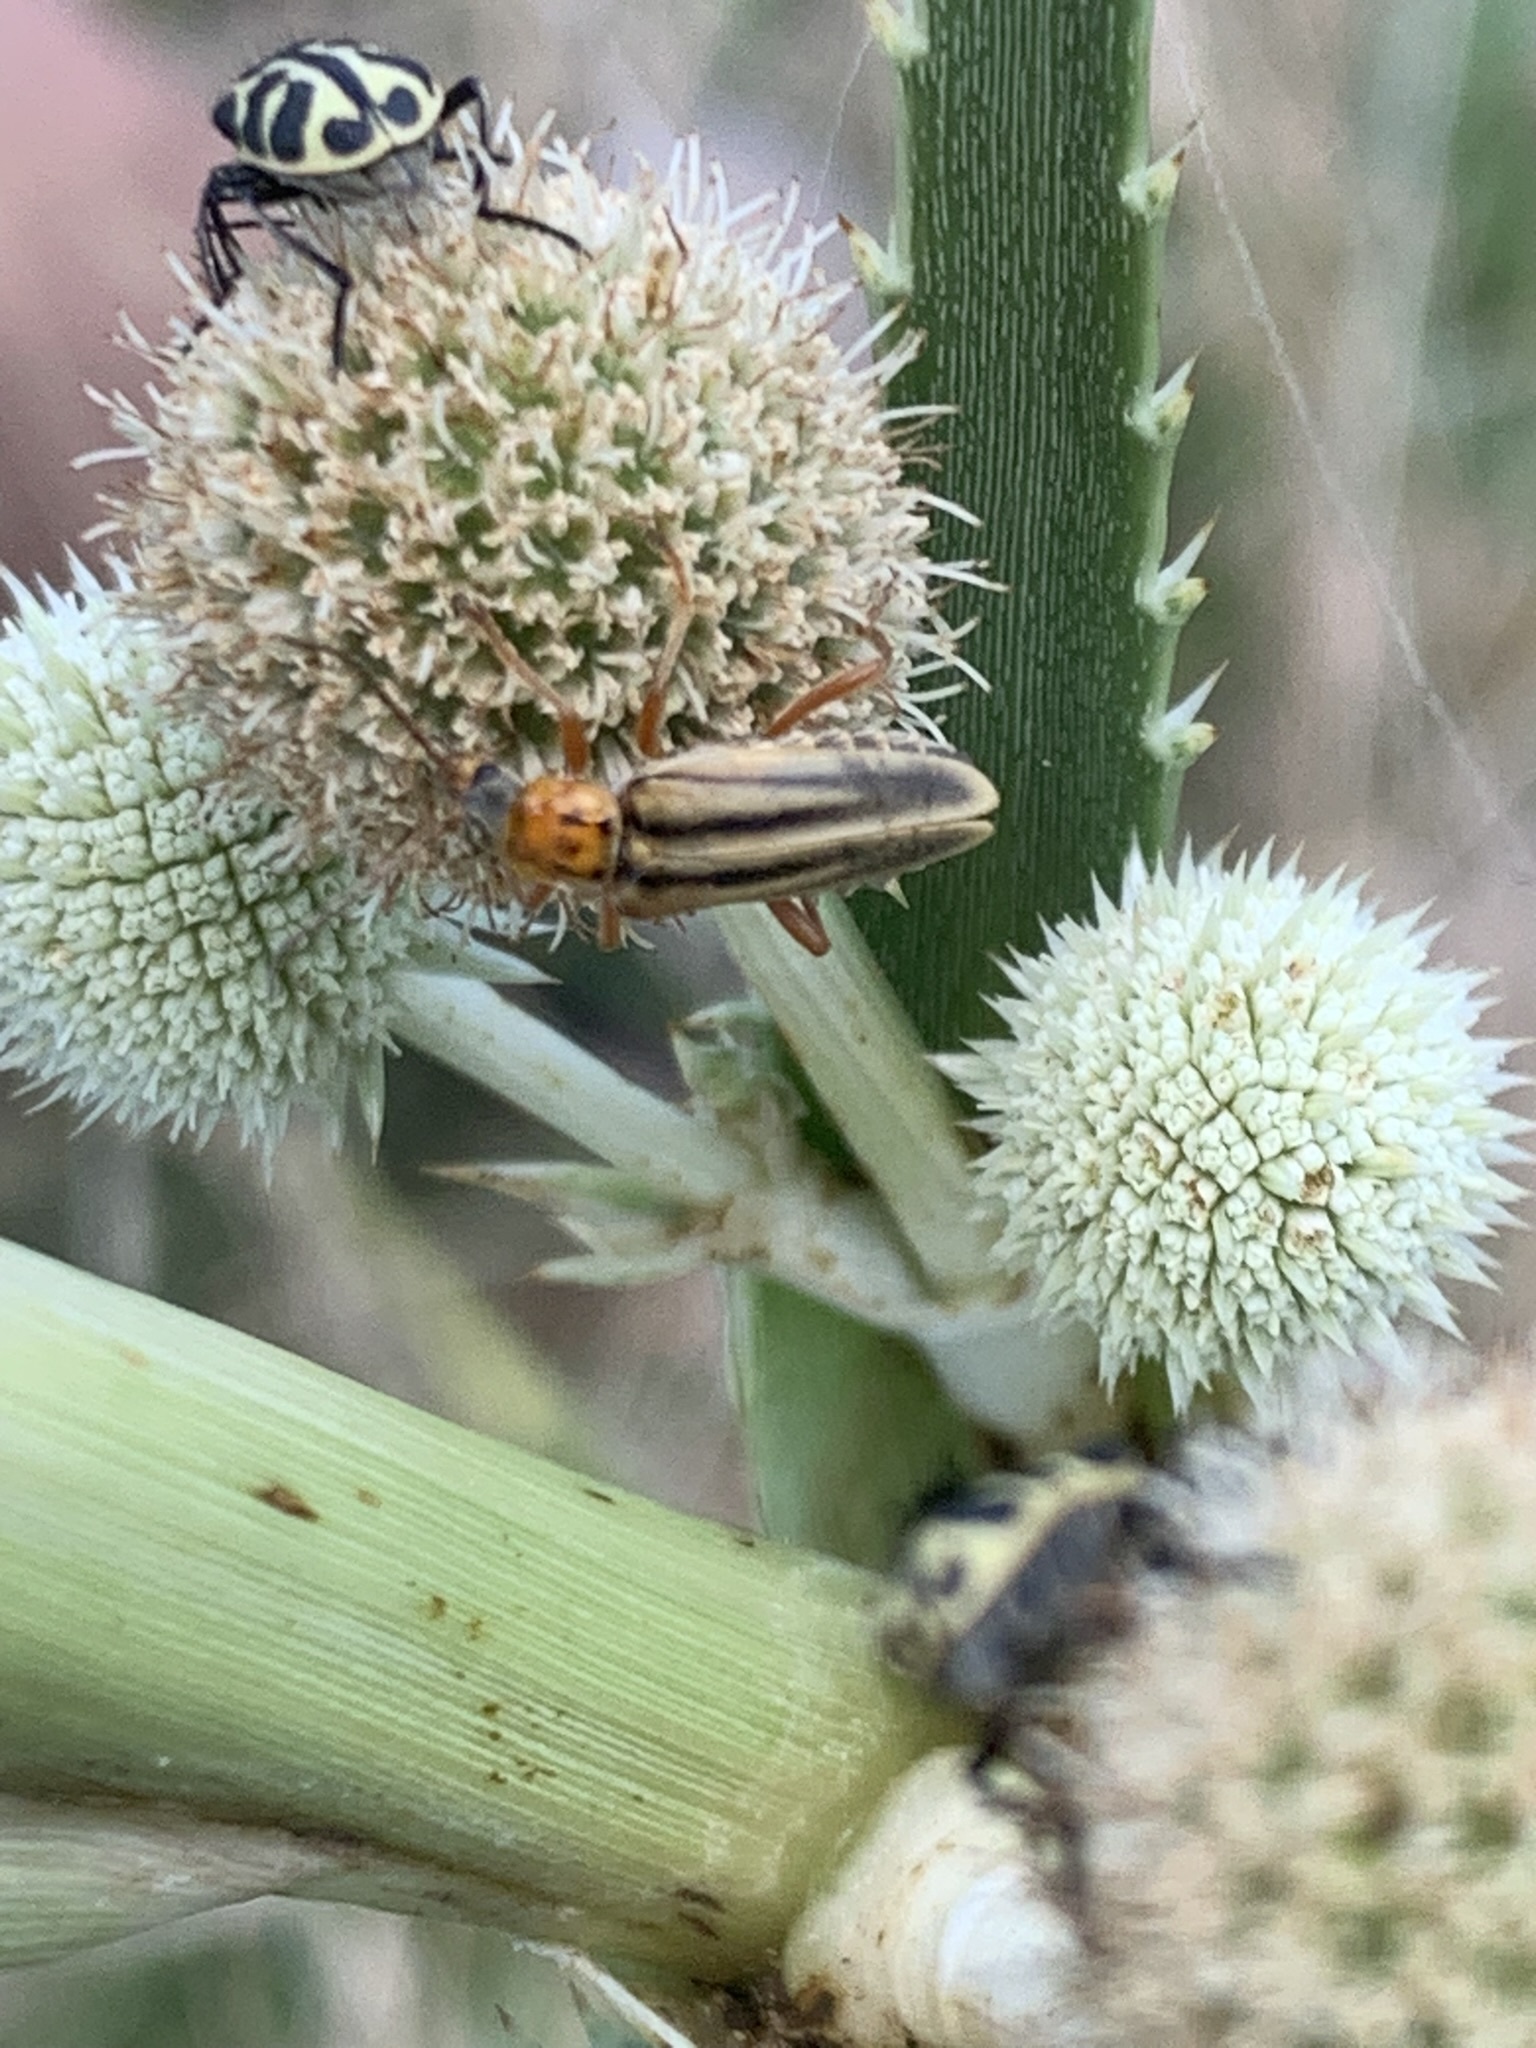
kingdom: Animalia
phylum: Arthropoda
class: Insecta
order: Coleoptera
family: Cantharidae
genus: Chauliognathus
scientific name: Chauliognathus
